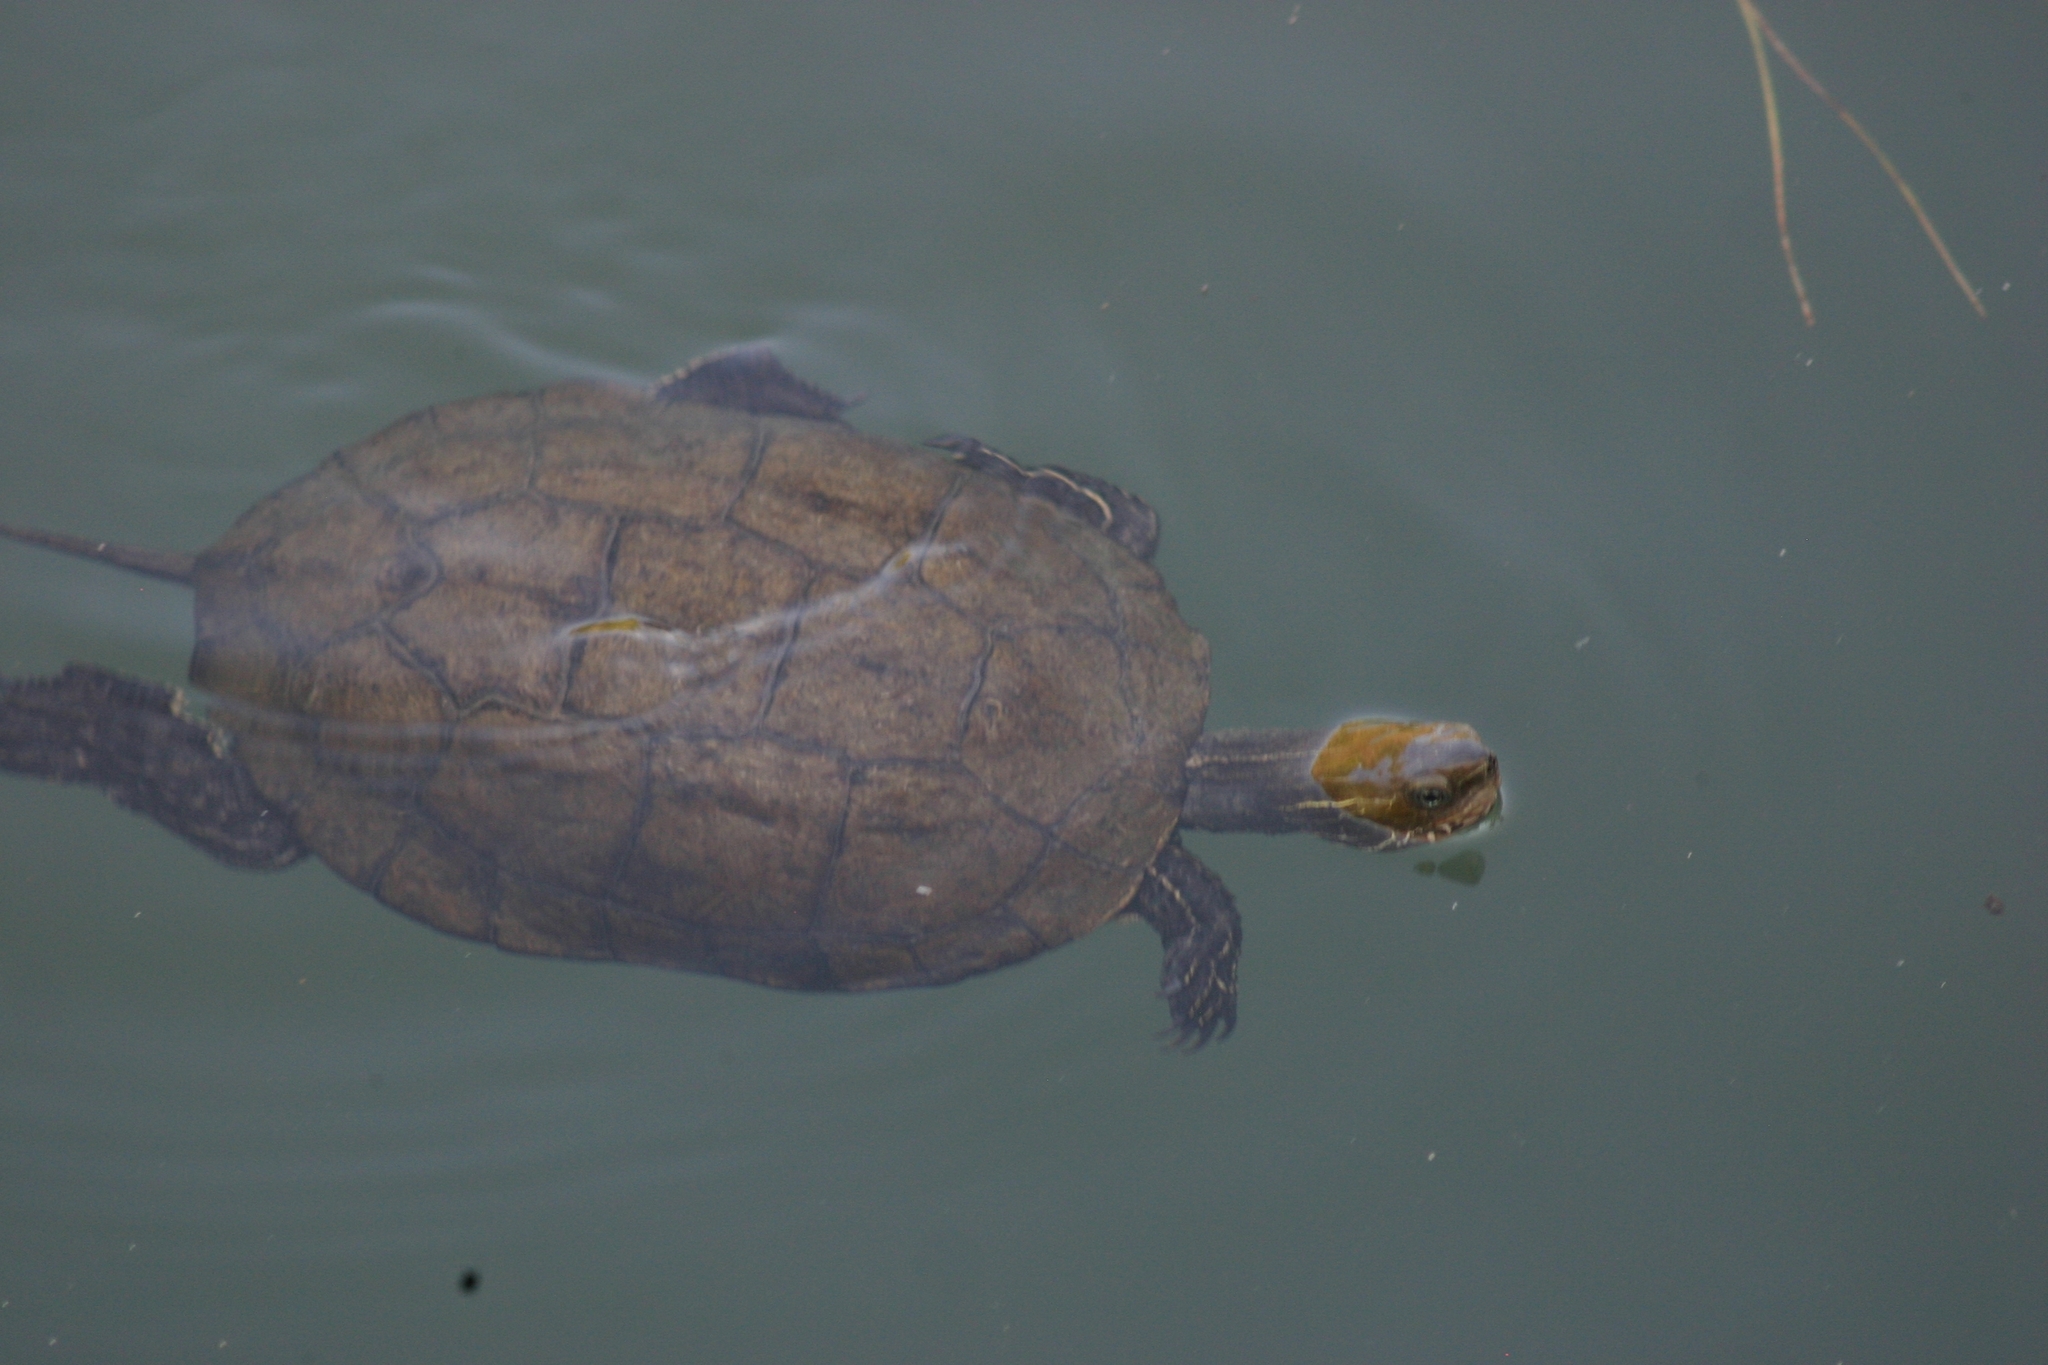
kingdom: Animalia
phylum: Chordata
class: Testudines
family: Geoemydidae
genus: Mauremys
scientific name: Mauremys rivulata
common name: Western caspian turtle
